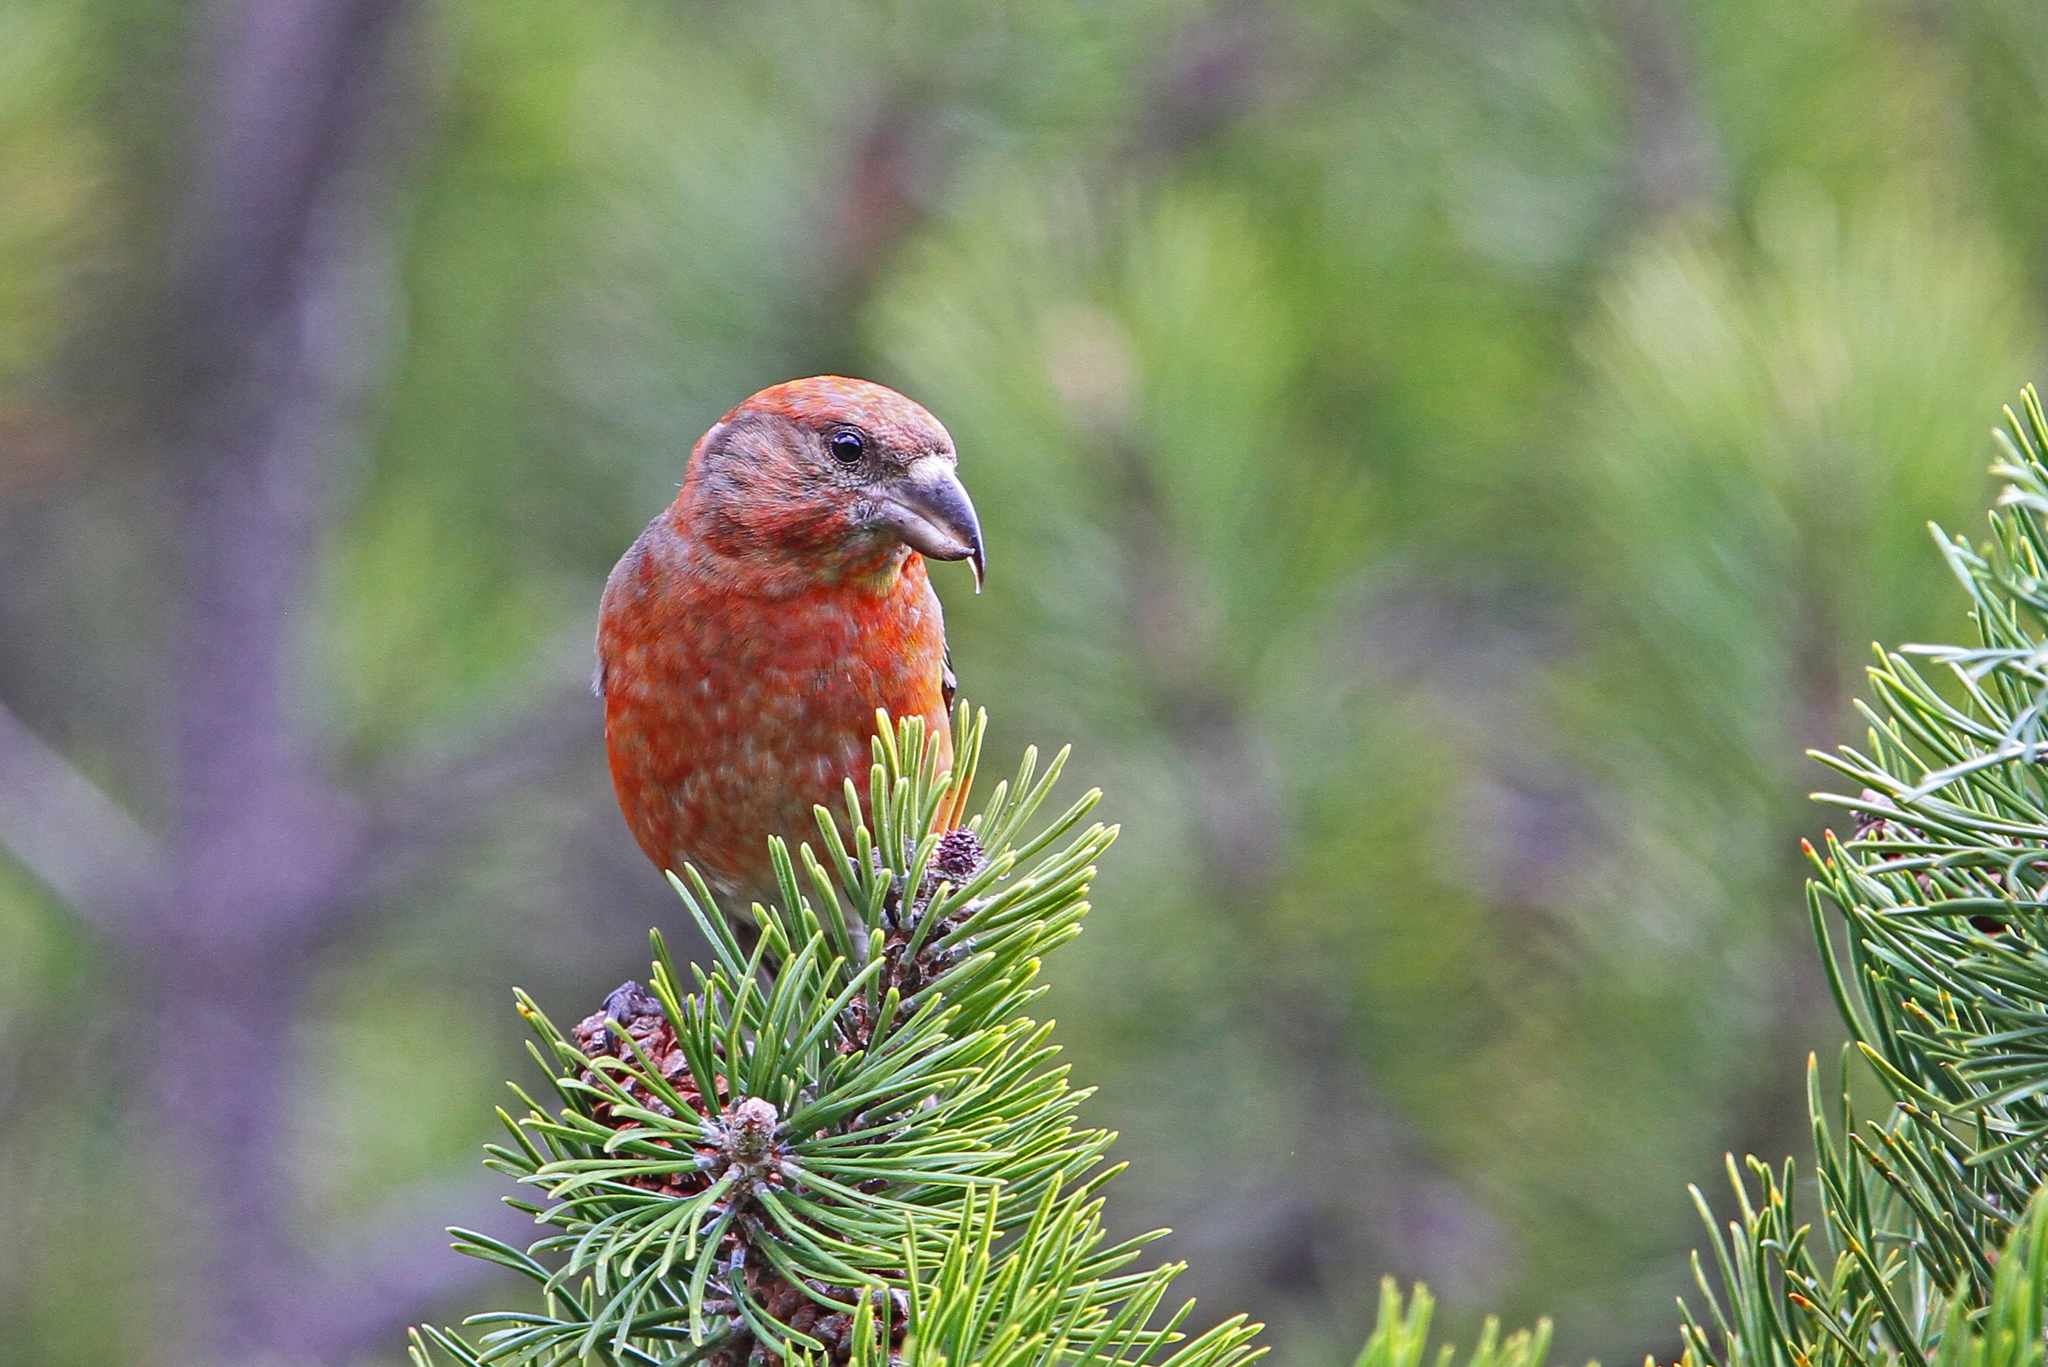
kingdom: Animalia
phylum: Chordata
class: Aves
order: Passeriformes
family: Fringillidae
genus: Loxia
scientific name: Loxia curvirostra
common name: Red crossbill
